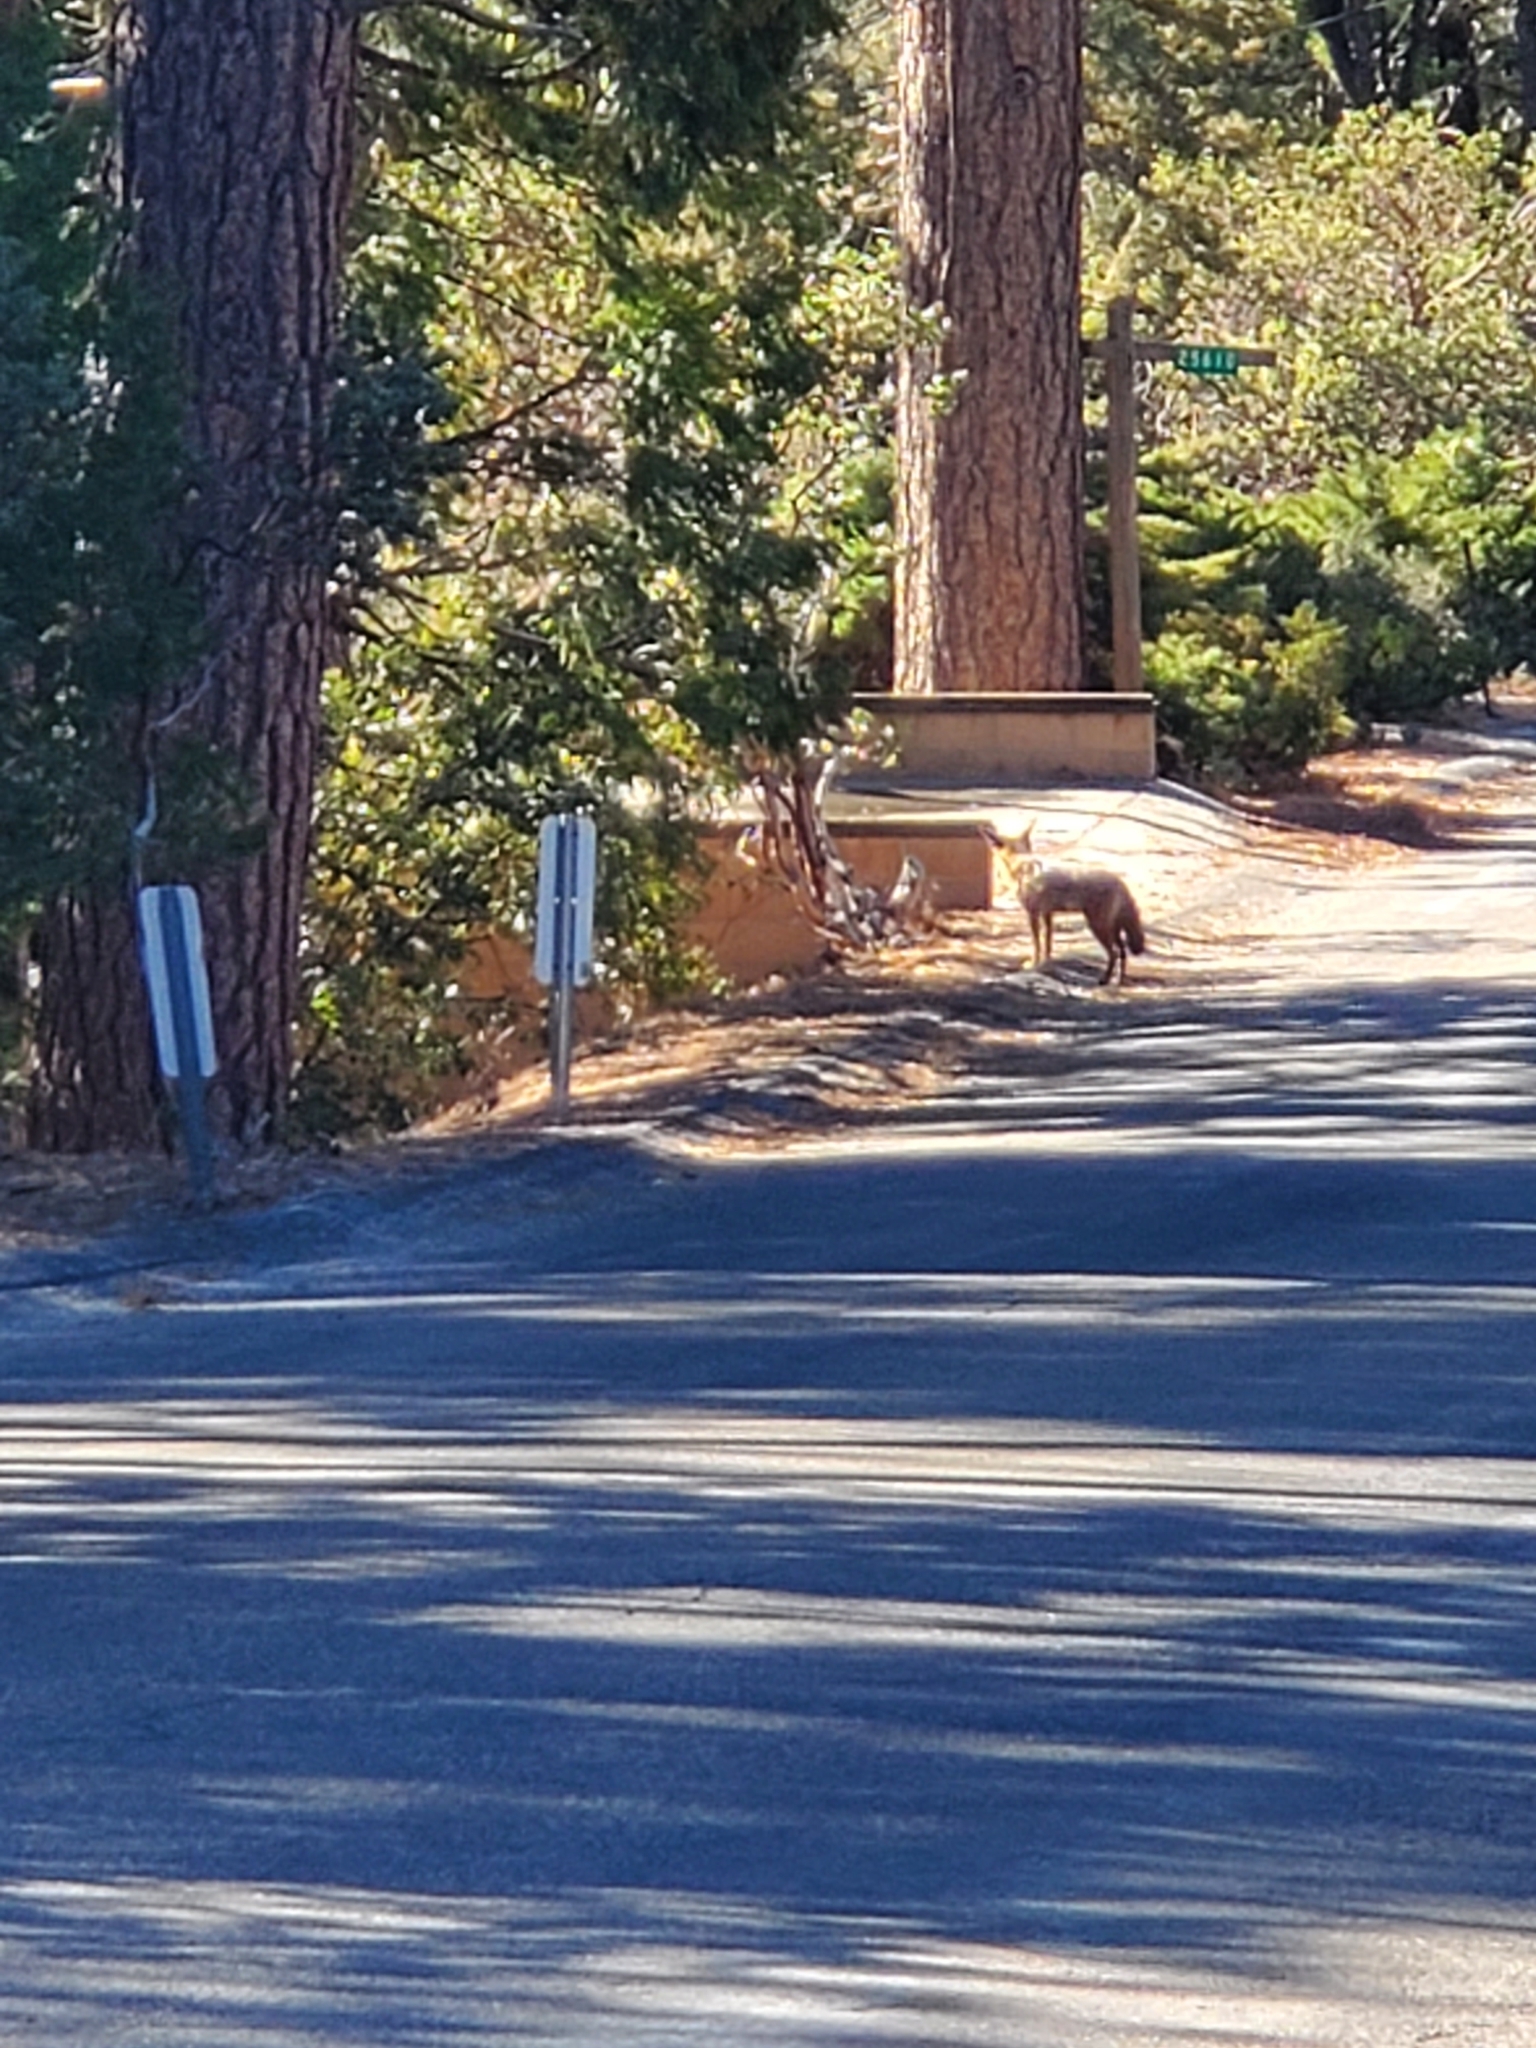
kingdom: Animalia
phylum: Chordata
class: Mammalia
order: Carnivora
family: Canidae
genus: Canis
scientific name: Canis latrans
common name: Coyote
